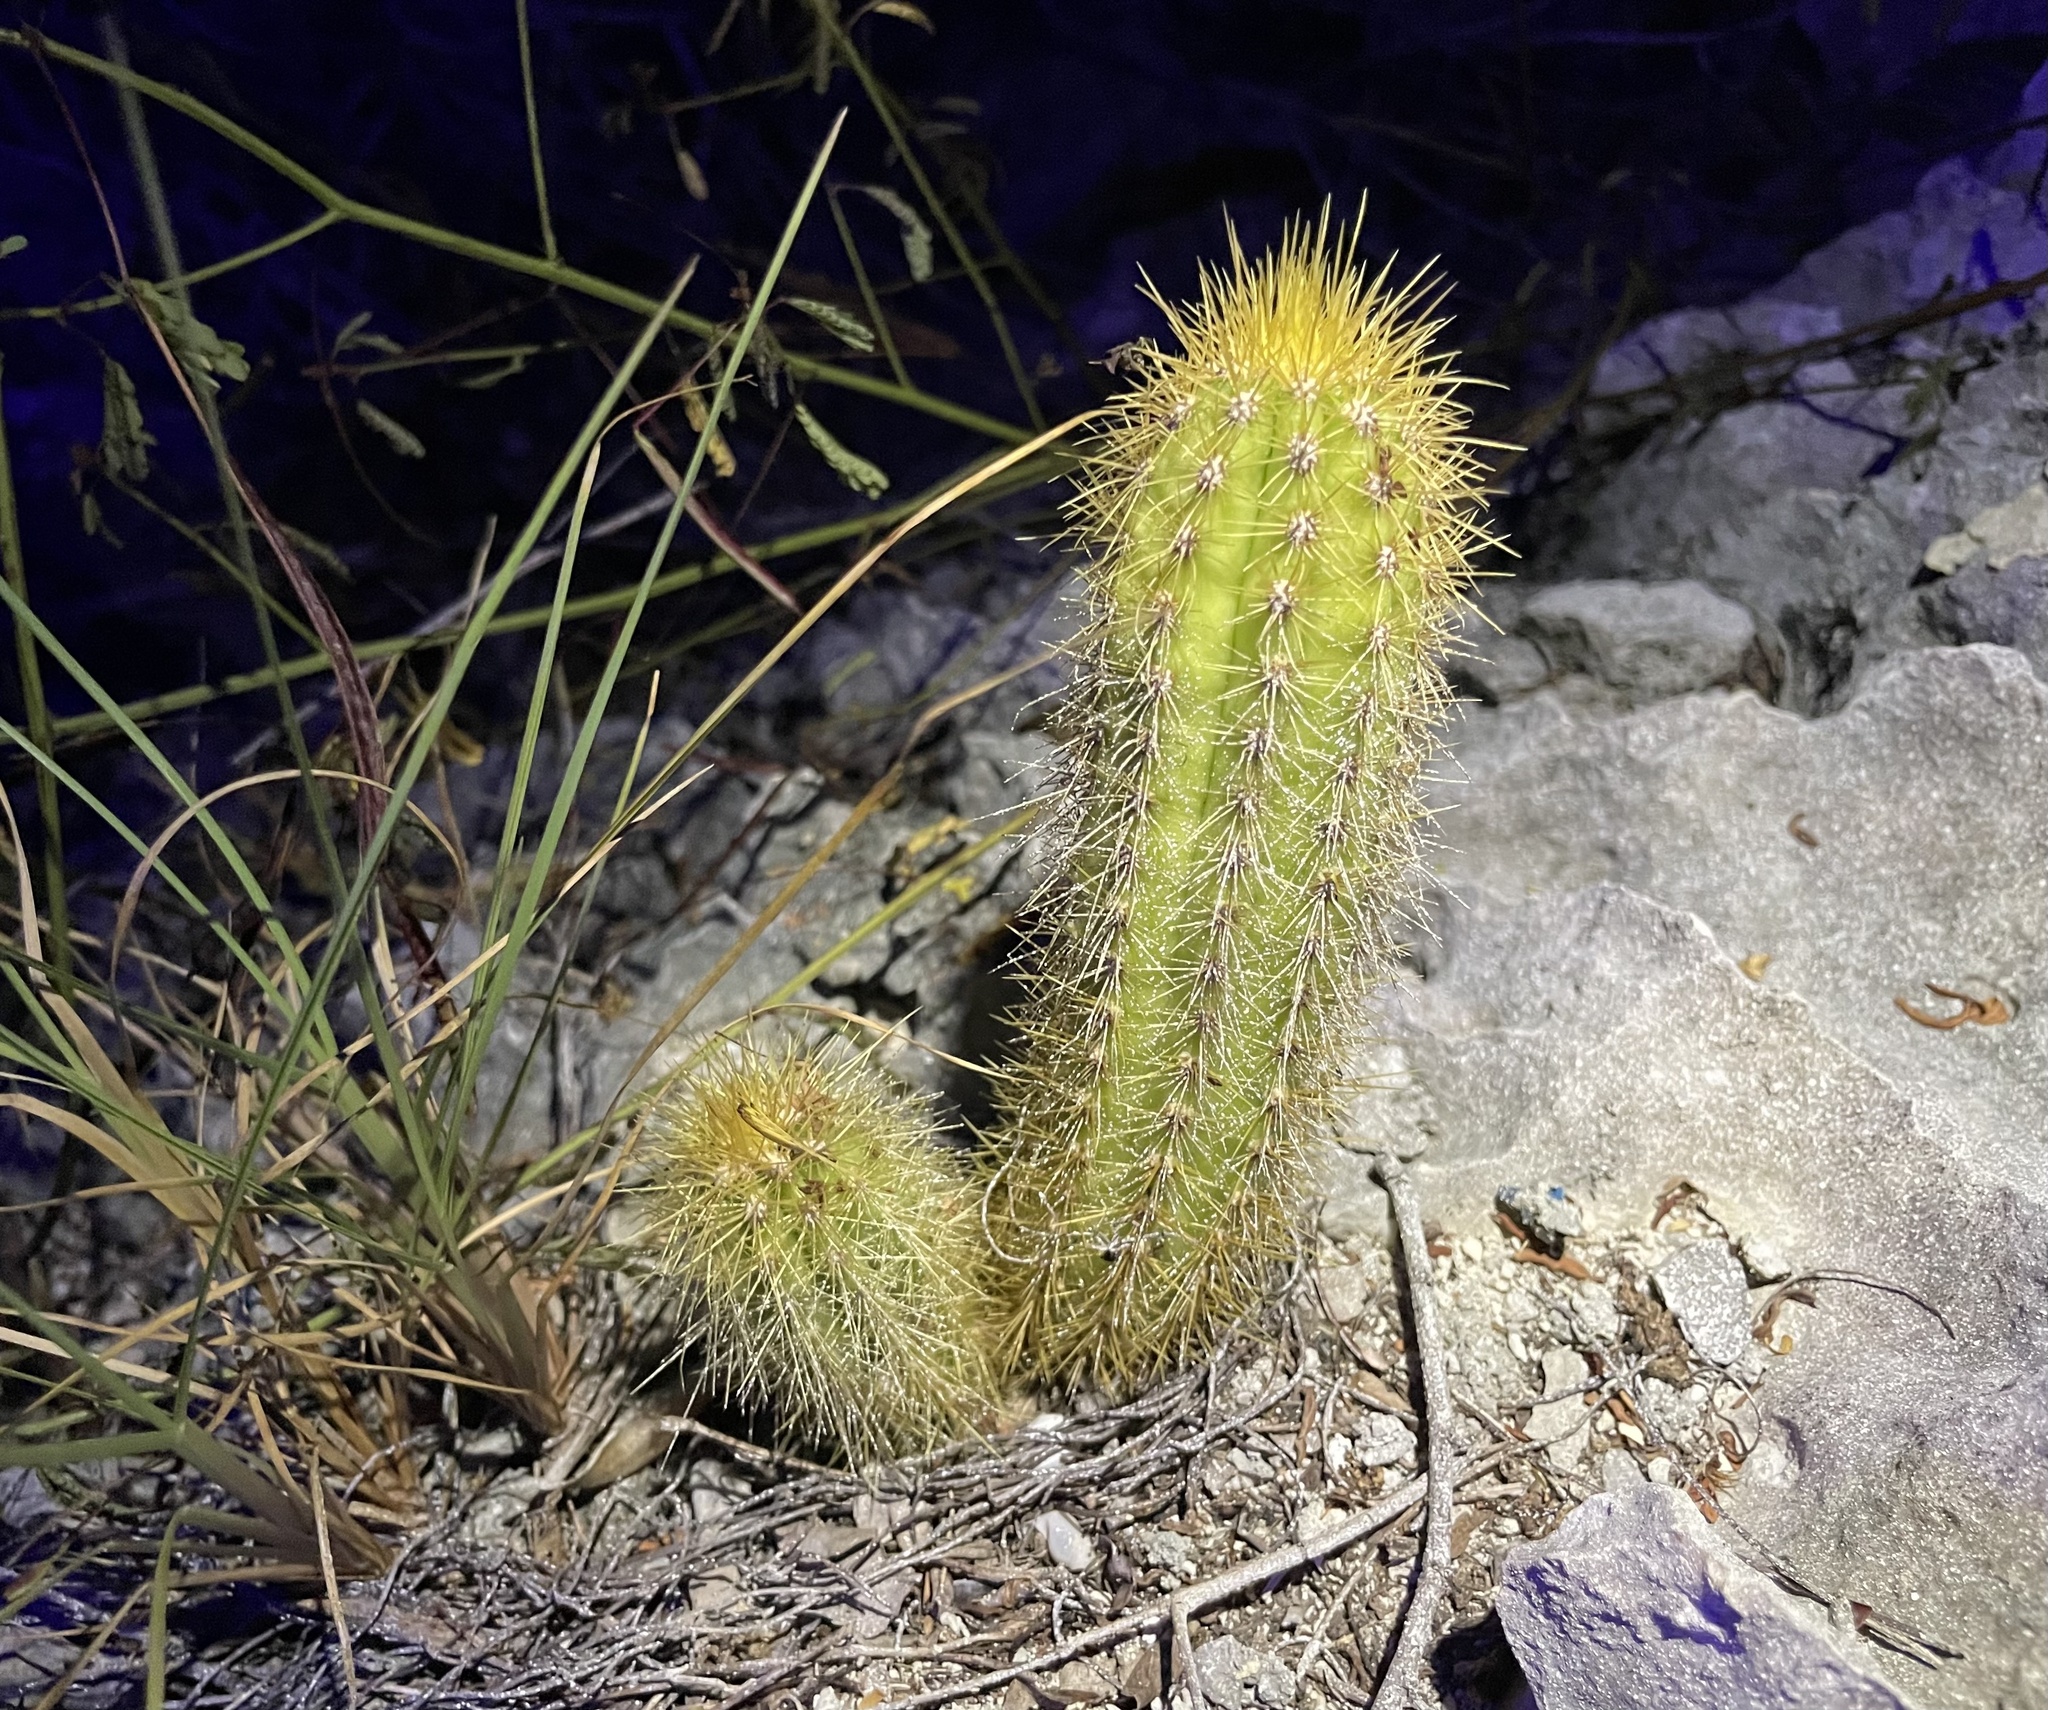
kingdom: Plantae
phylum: Tracheophyta
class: Magnoliopsida
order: Caryophyllales
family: Cactaceae
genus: Pilosocereus
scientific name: Pilosocereus millspaughii
